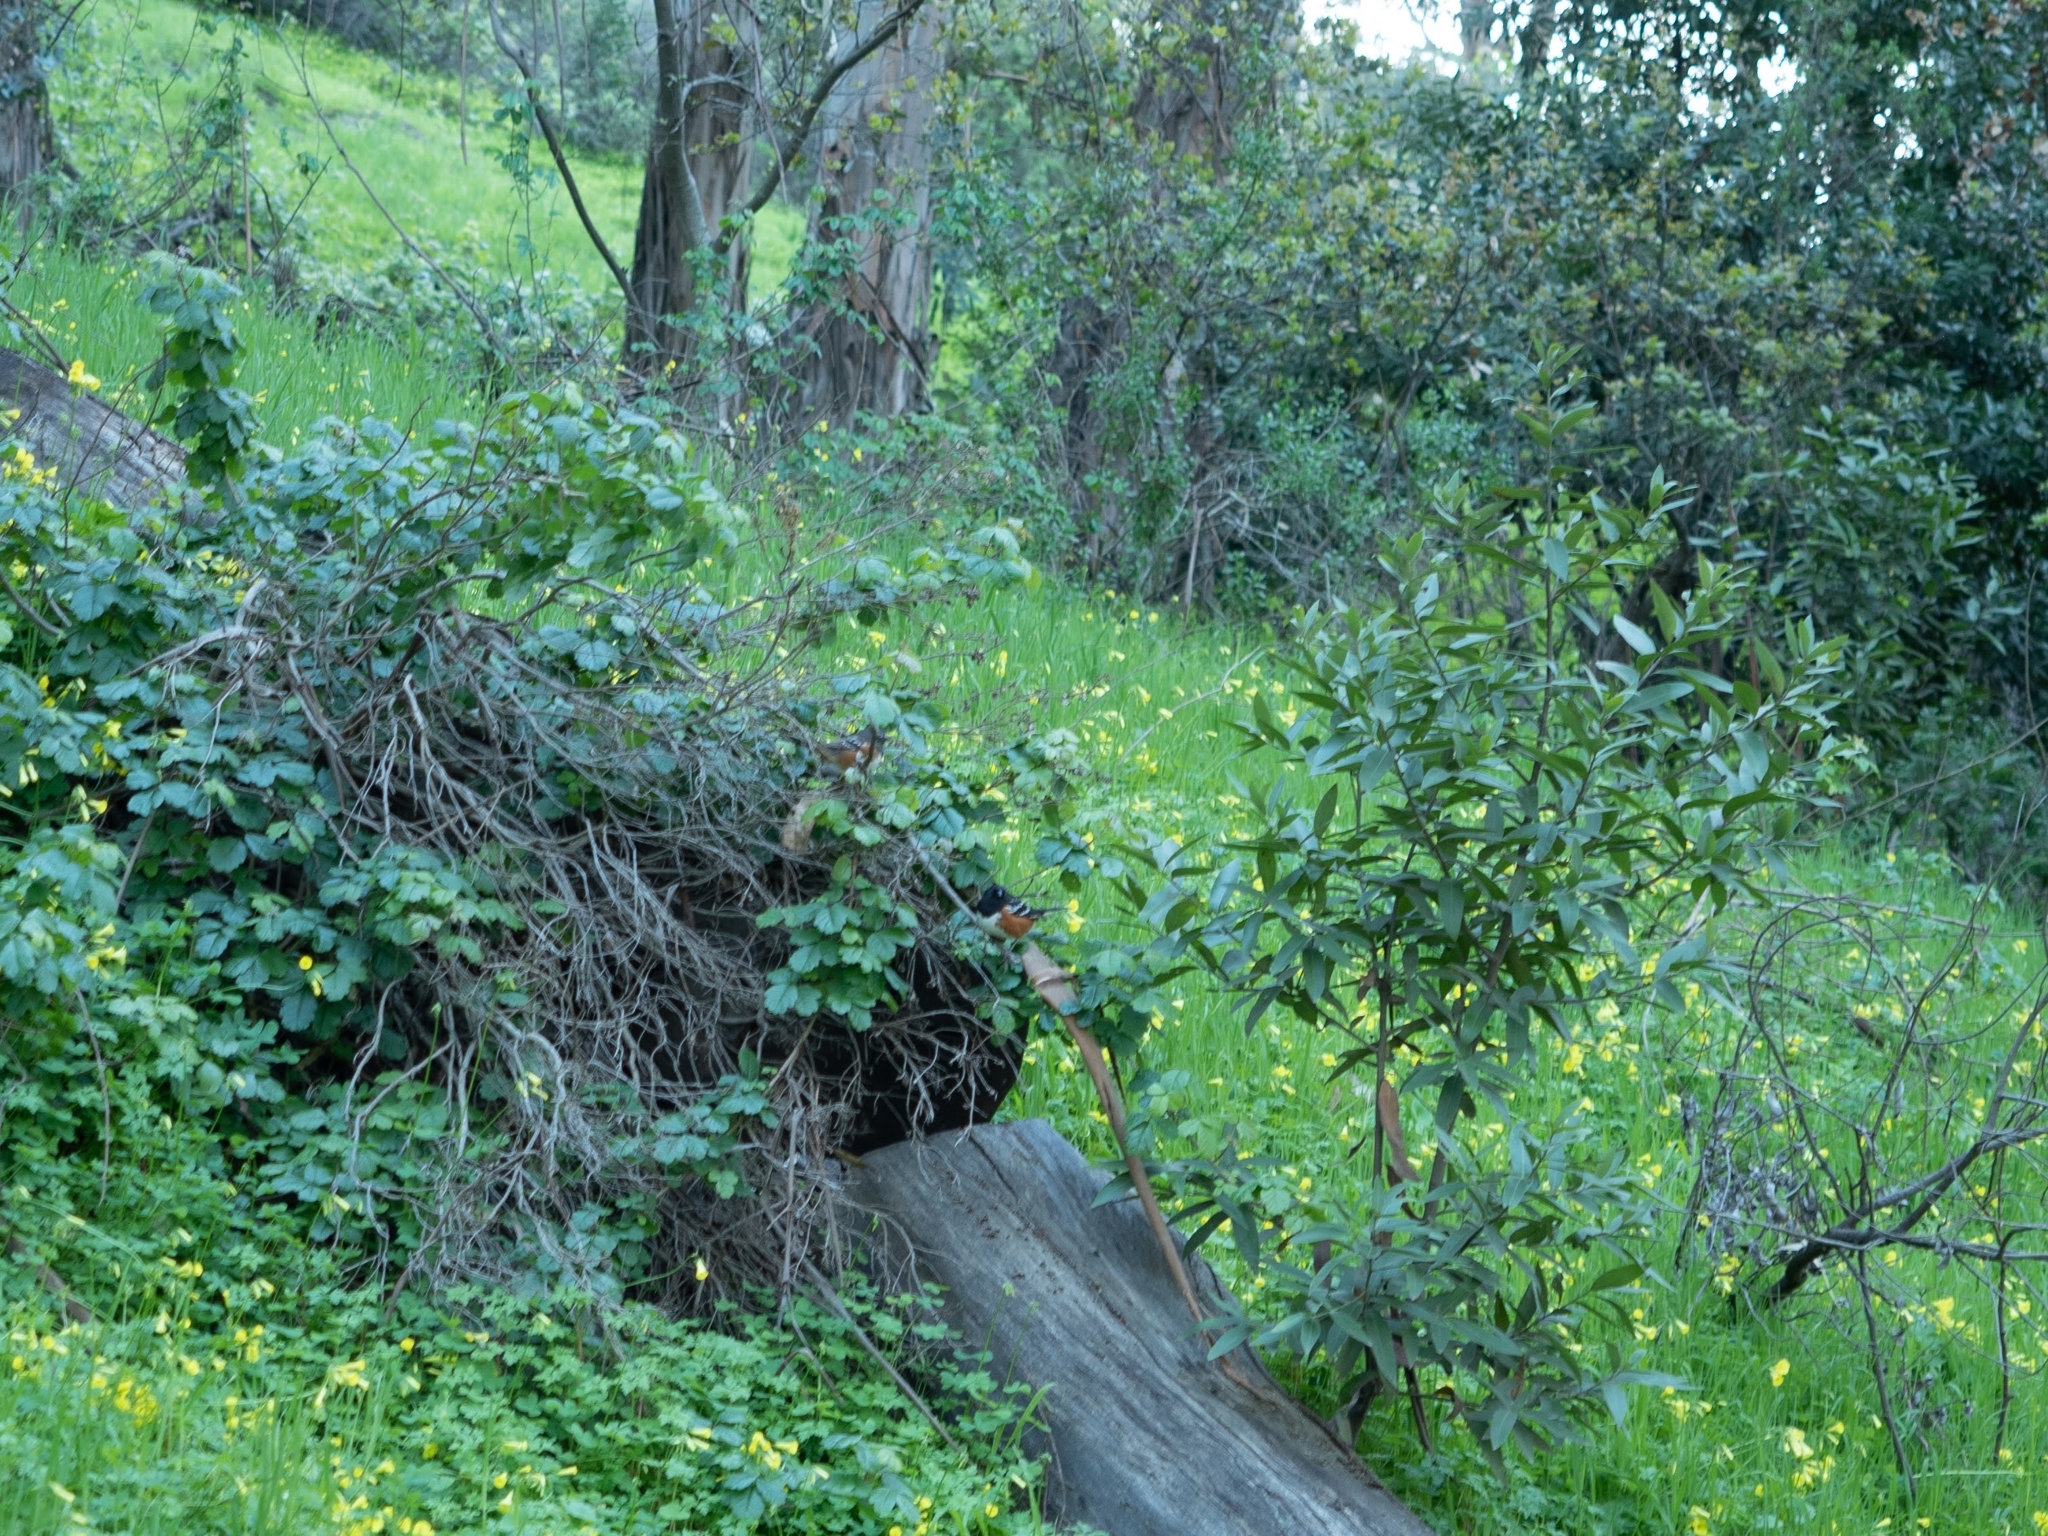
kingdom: Animalia
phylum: Chordata
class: Aves
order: Passeriformes
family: Passerellidae
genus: Pipilo
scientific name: Pipilo maculatus
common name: Spotted towhee
